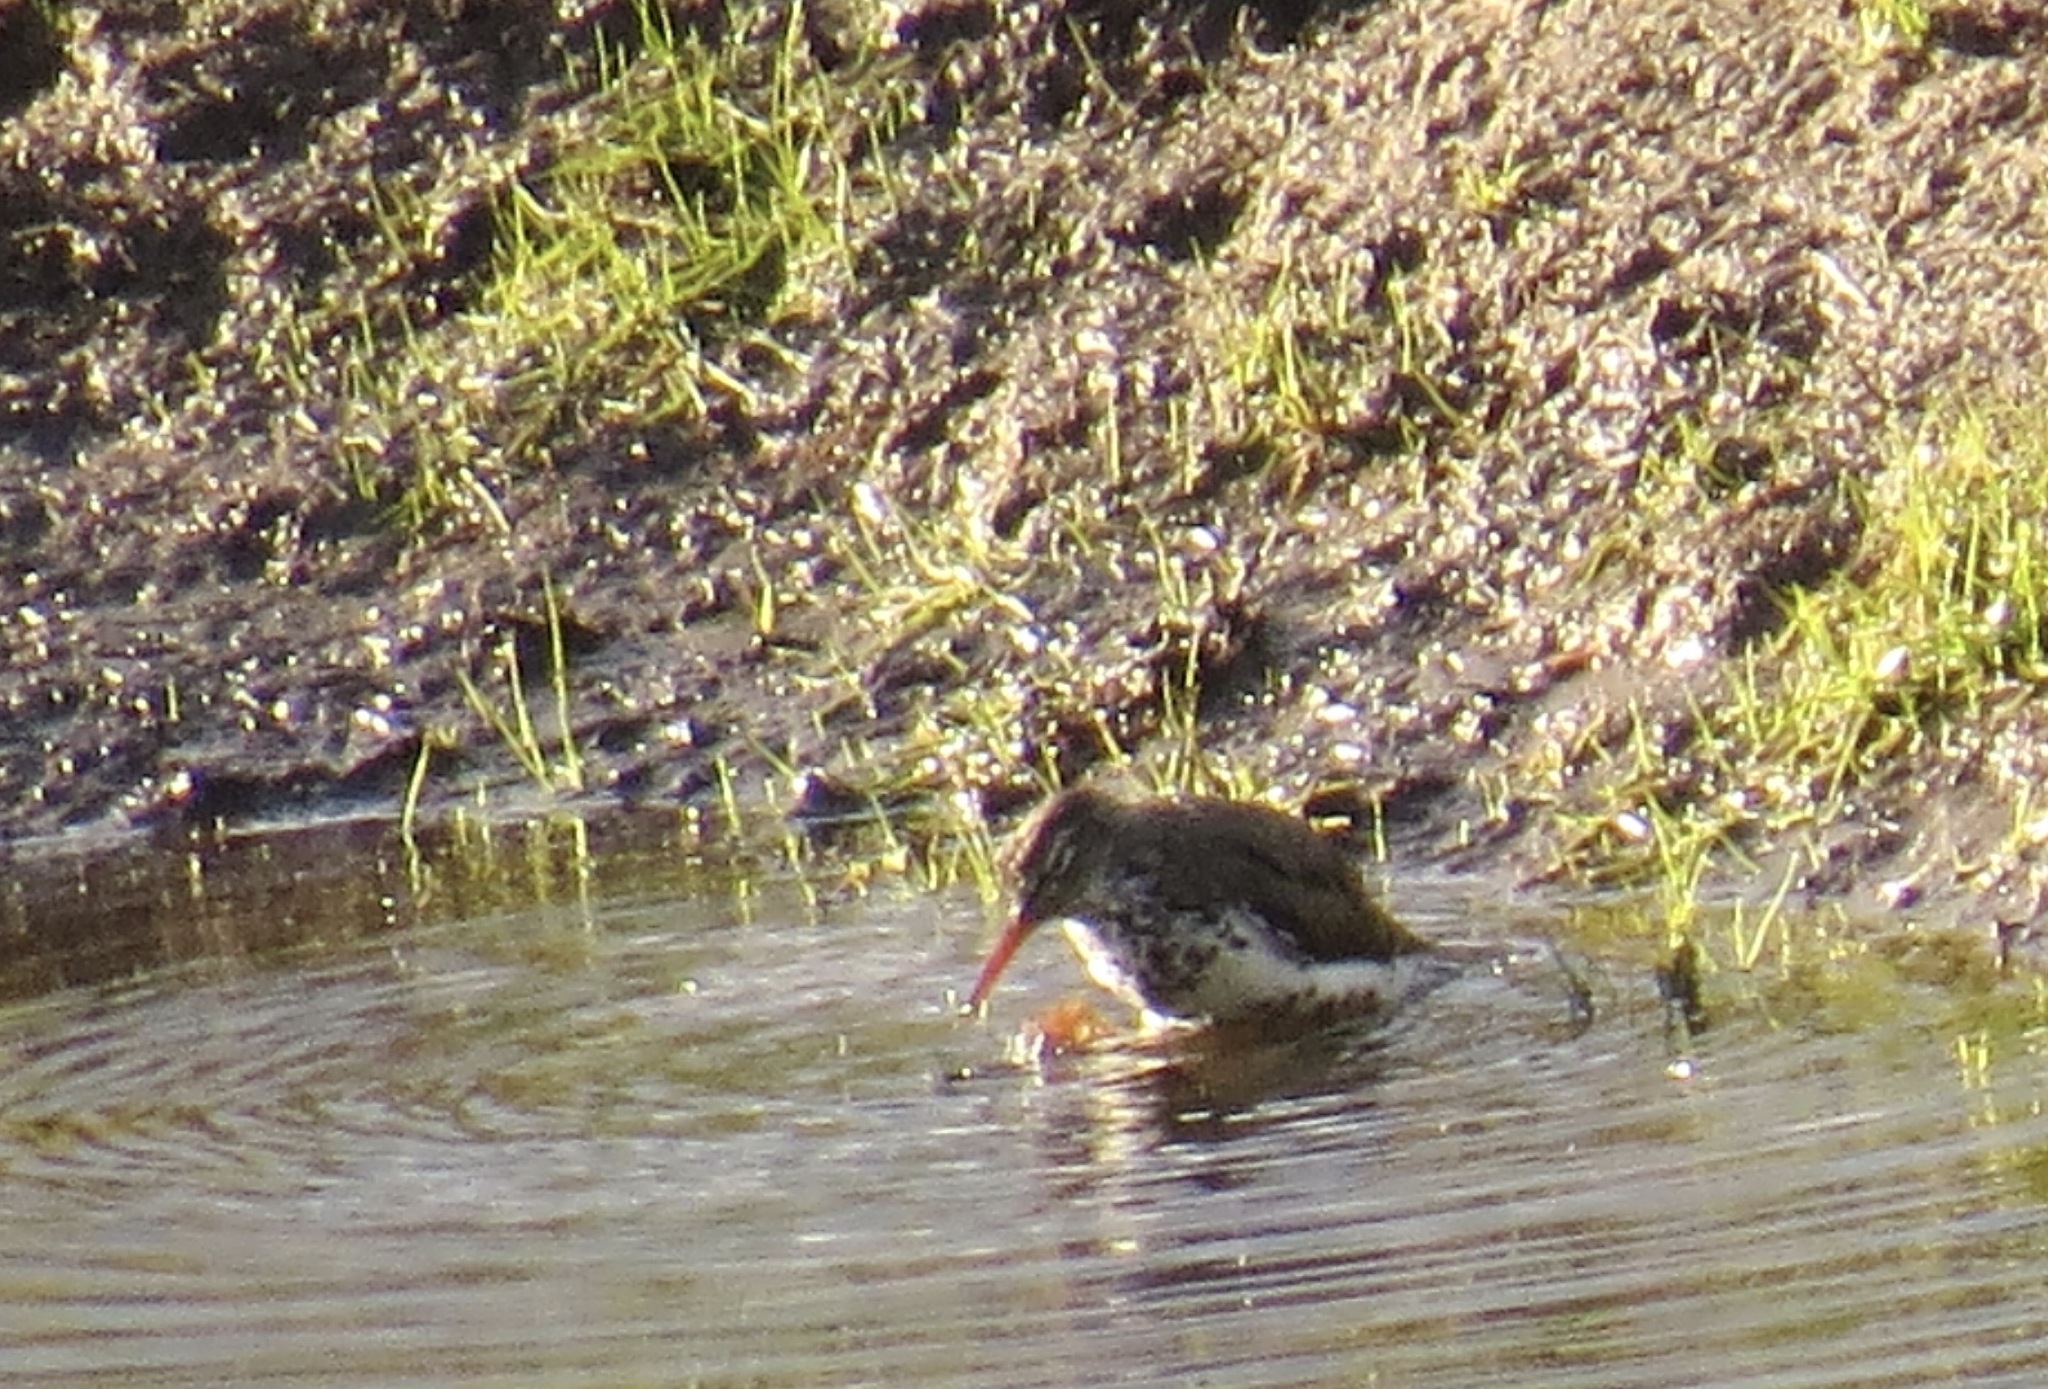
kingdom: Animalia
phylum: Chordata
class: Aves
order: Charadriiformes
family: Scolopacidae
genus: Actitis
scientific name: Actitis macularius
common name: Spotted sandpiper
